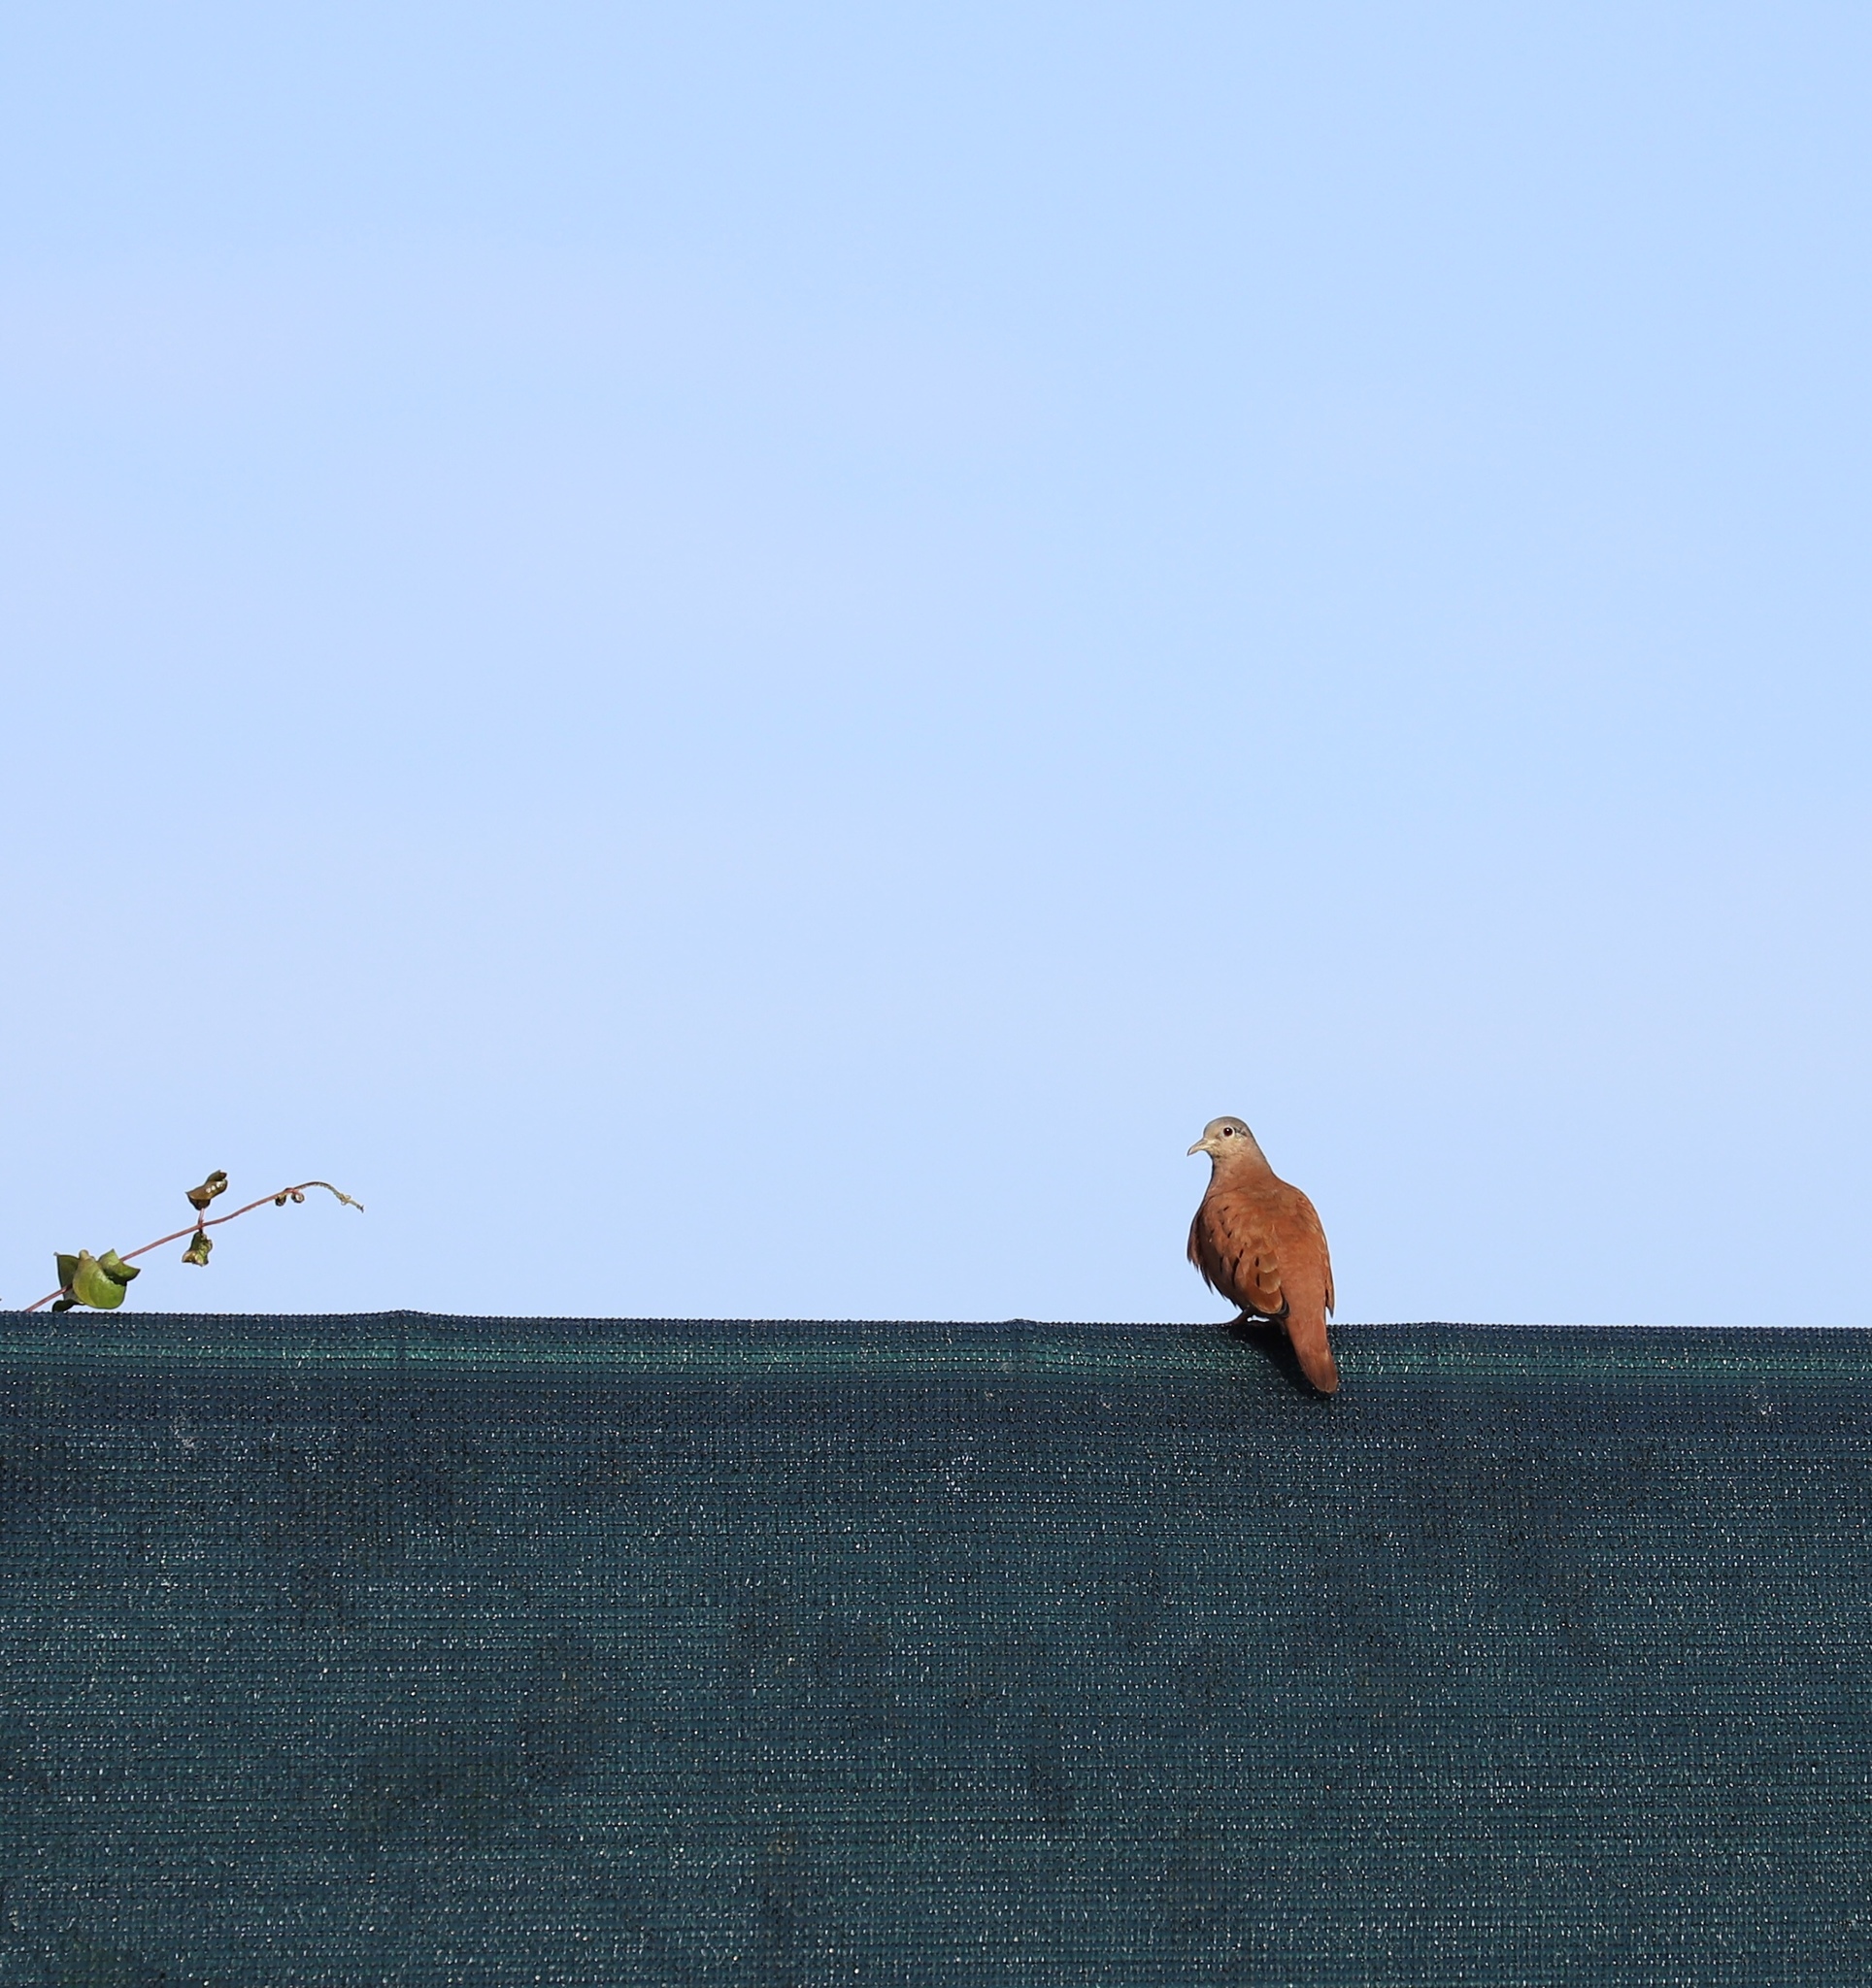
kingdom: Animalia
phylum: Chordata
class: Aves
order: Columbiformes
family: Columbidae
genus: Columbina
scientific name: Columbina talpacoti
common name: Ruddy ground dove
